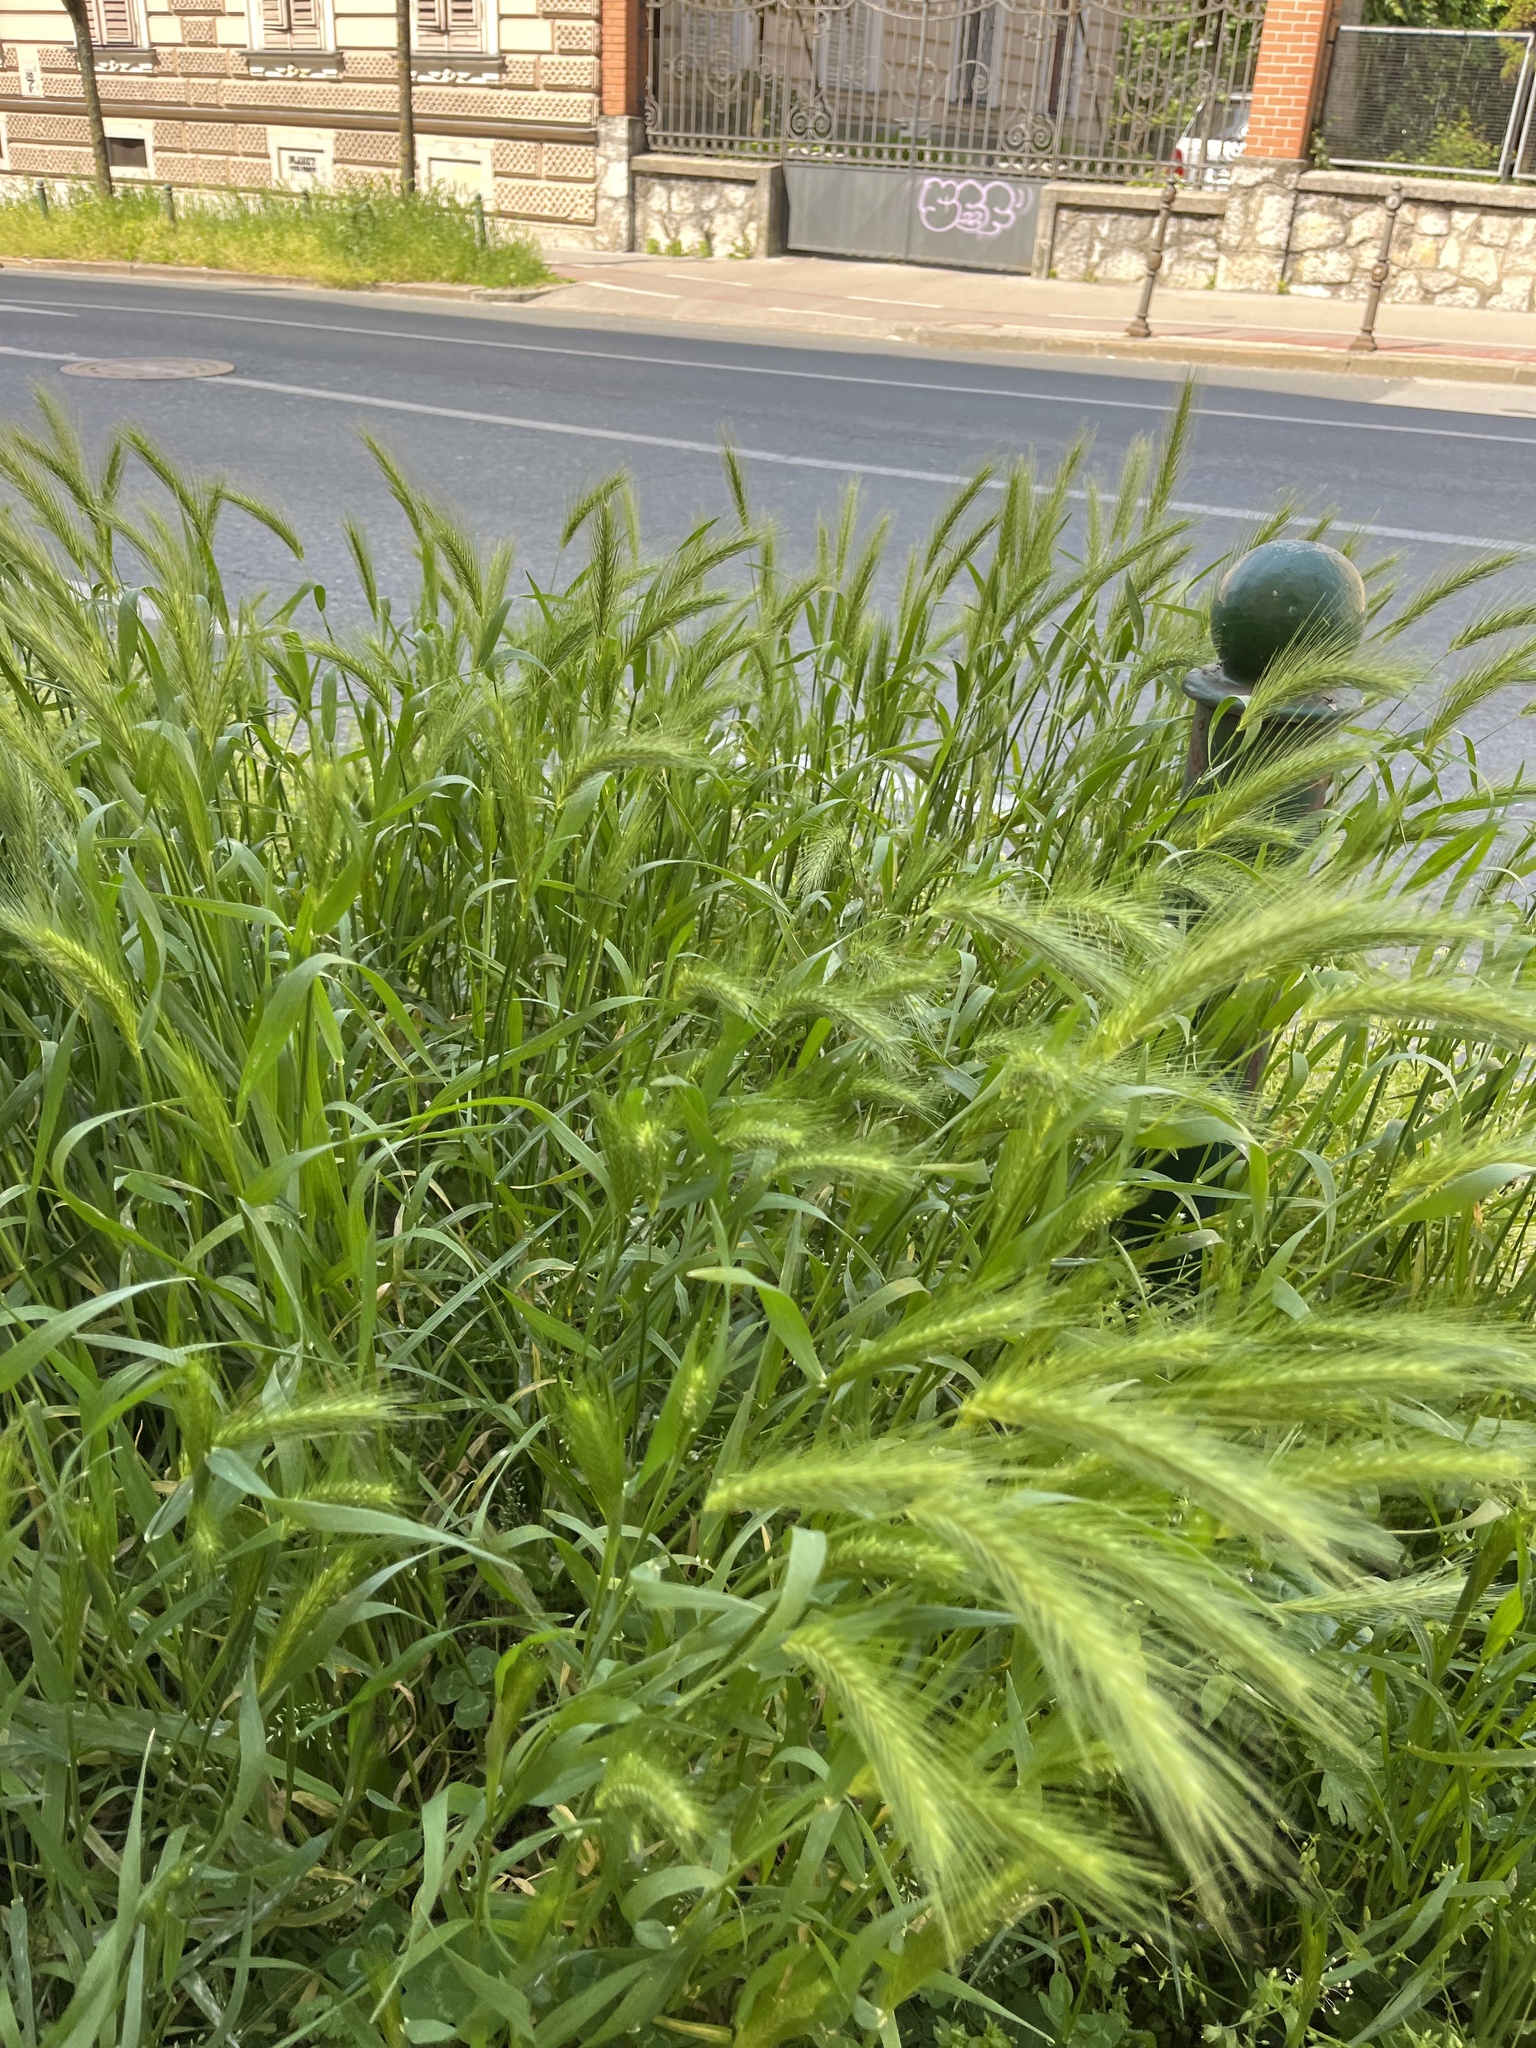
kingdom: Plantae
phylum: Tracheophyta
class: Liliopsida
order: Poales
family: Poaceae
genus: Hordeum
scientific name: Hordeum murinum
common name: Wall barley
